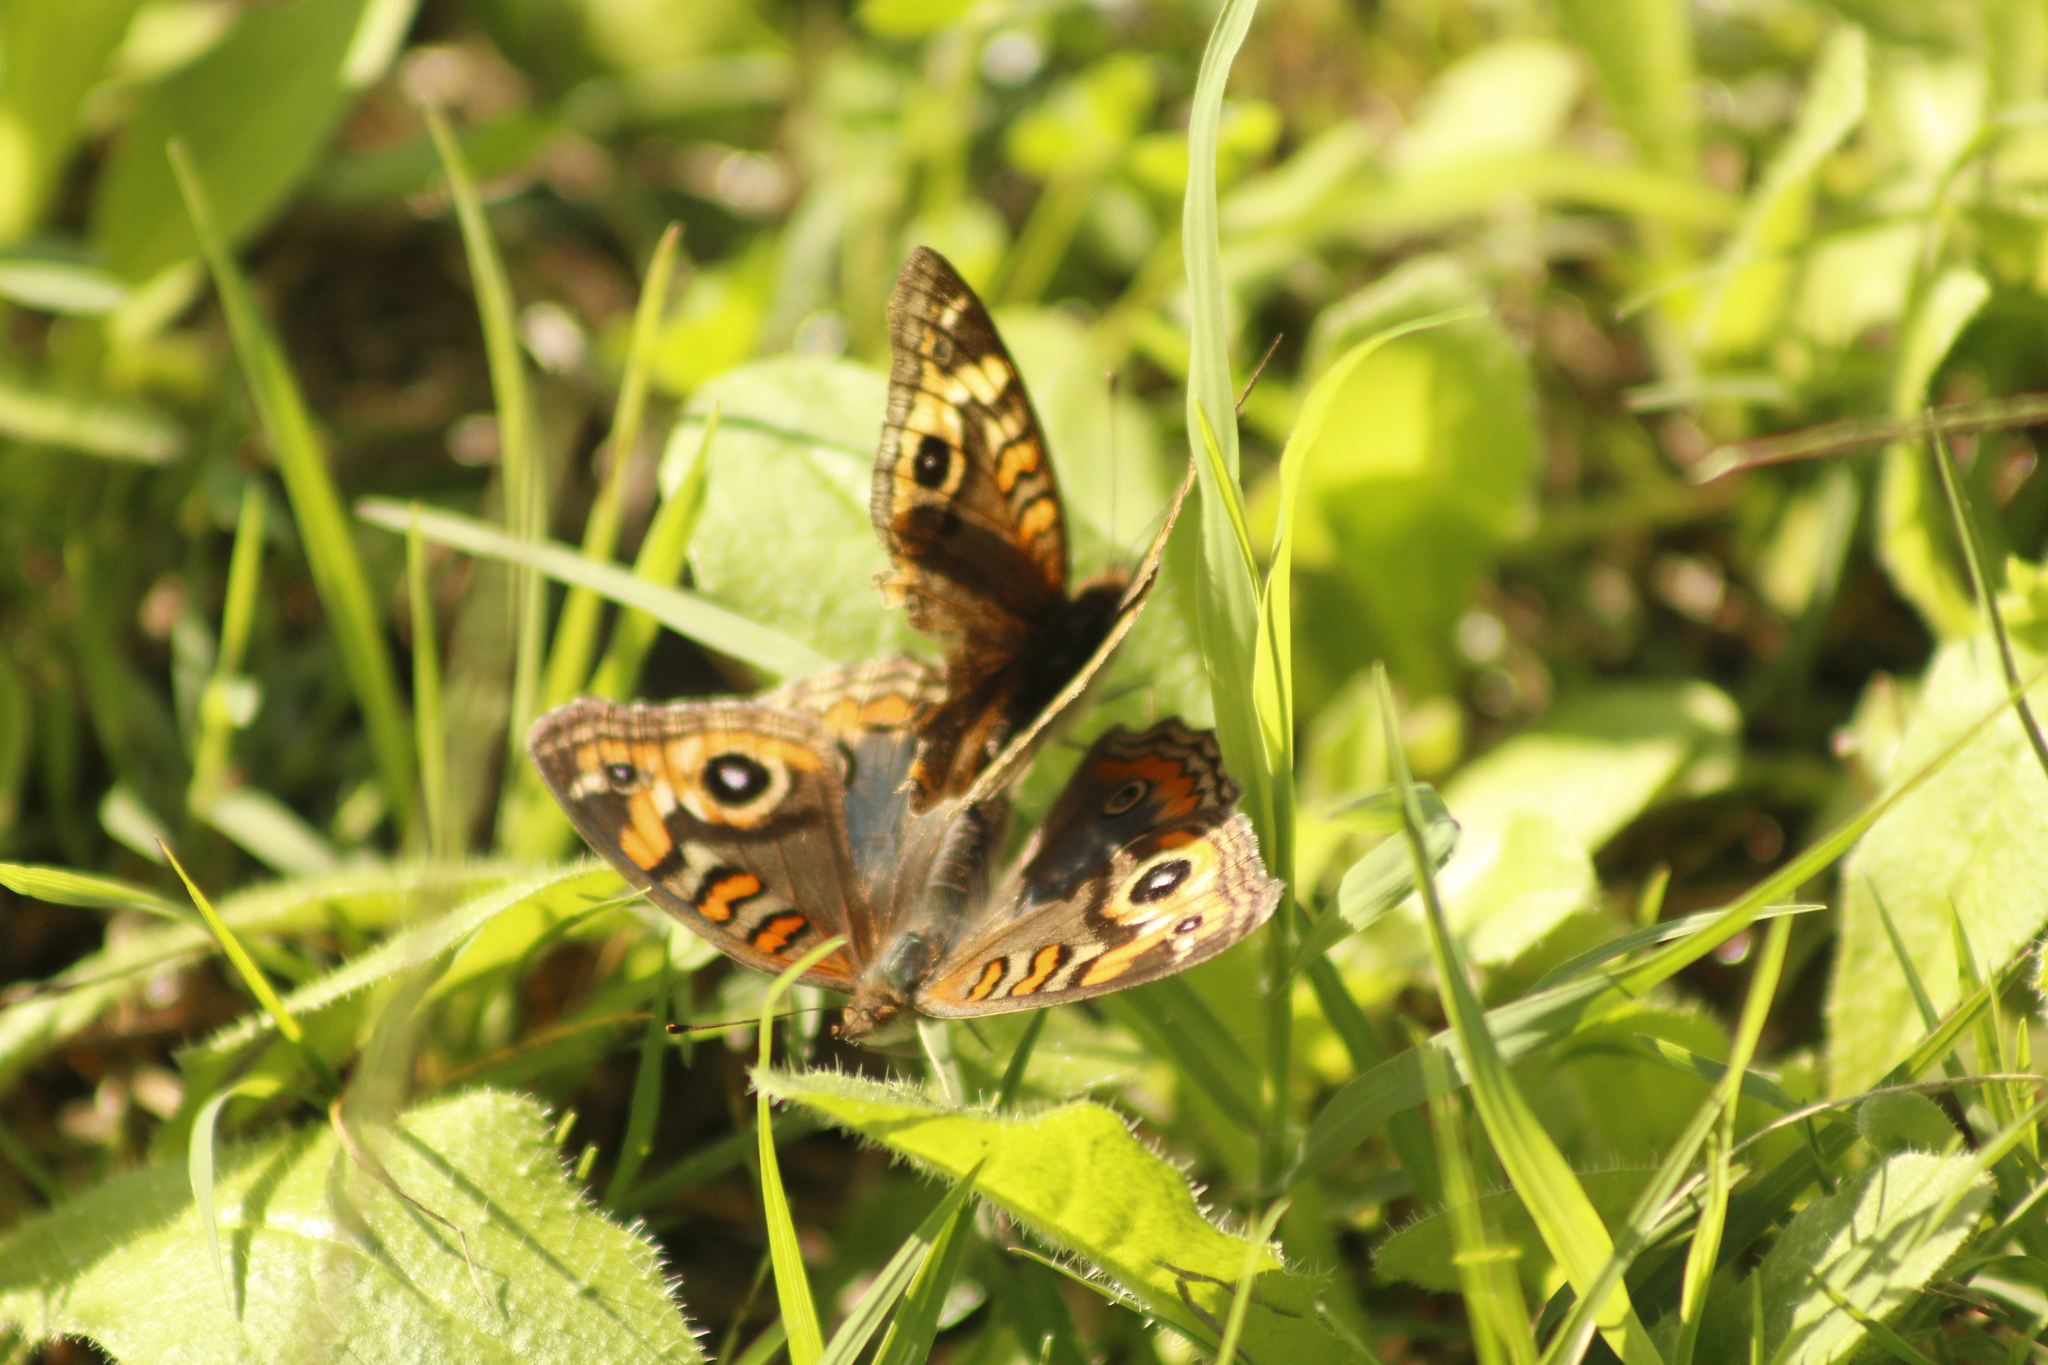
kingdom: Animalia
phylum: Arthropoda
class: Insecta
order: Lepidoptera
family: Nymphalidae
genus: Junonia
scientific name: Junonia lavinia
